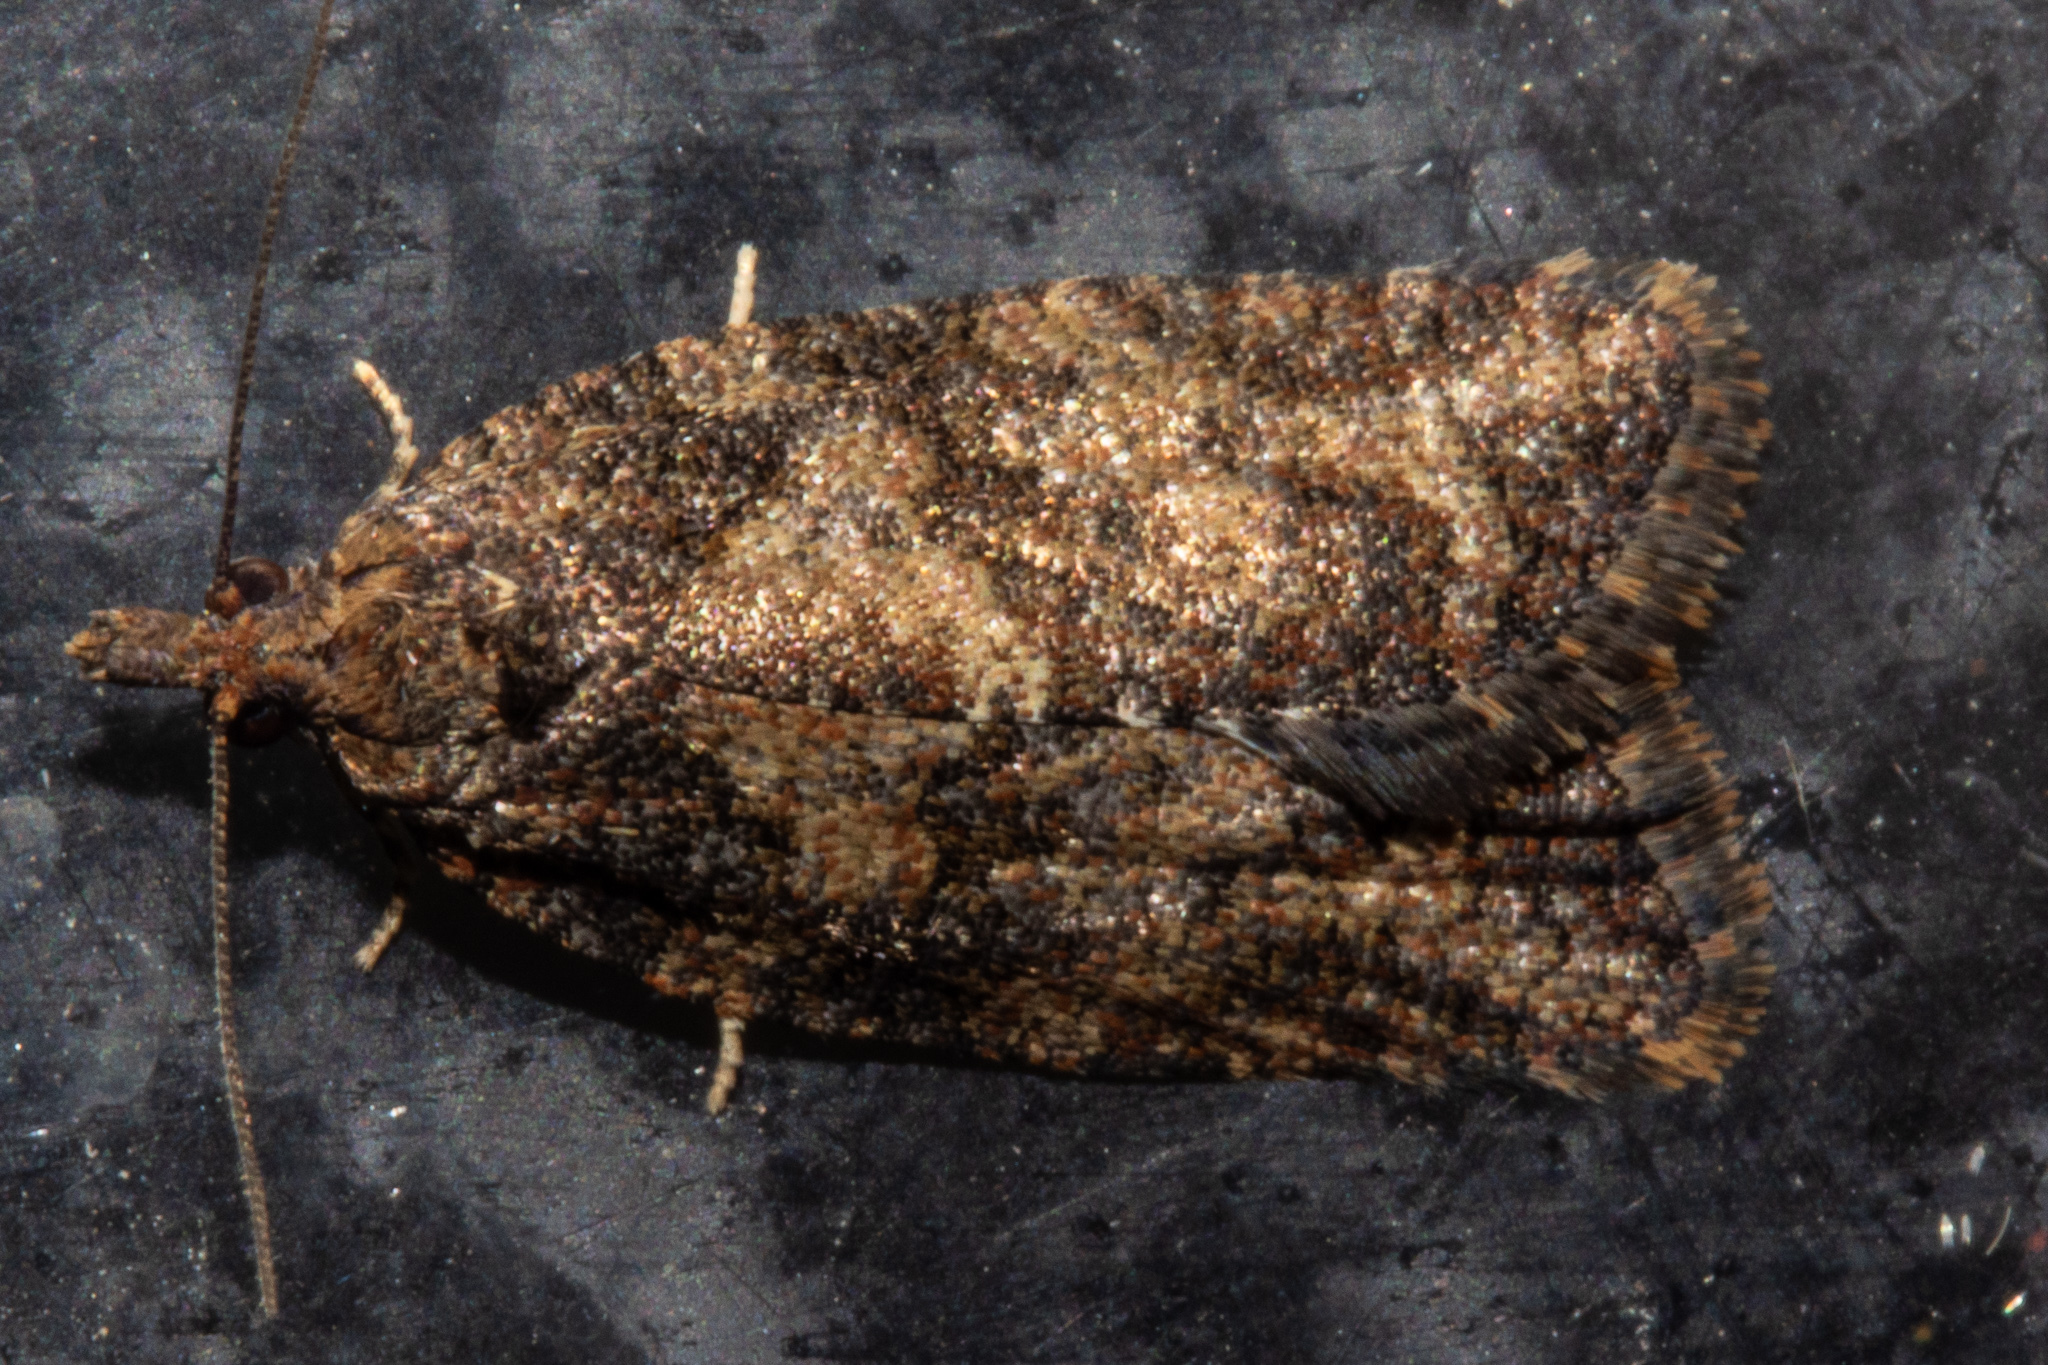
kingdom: Animalia
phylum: Arthropoda
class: Insecta
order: Lepidoptera
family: Tortricidae
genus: Capua
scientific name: Capua intractana
